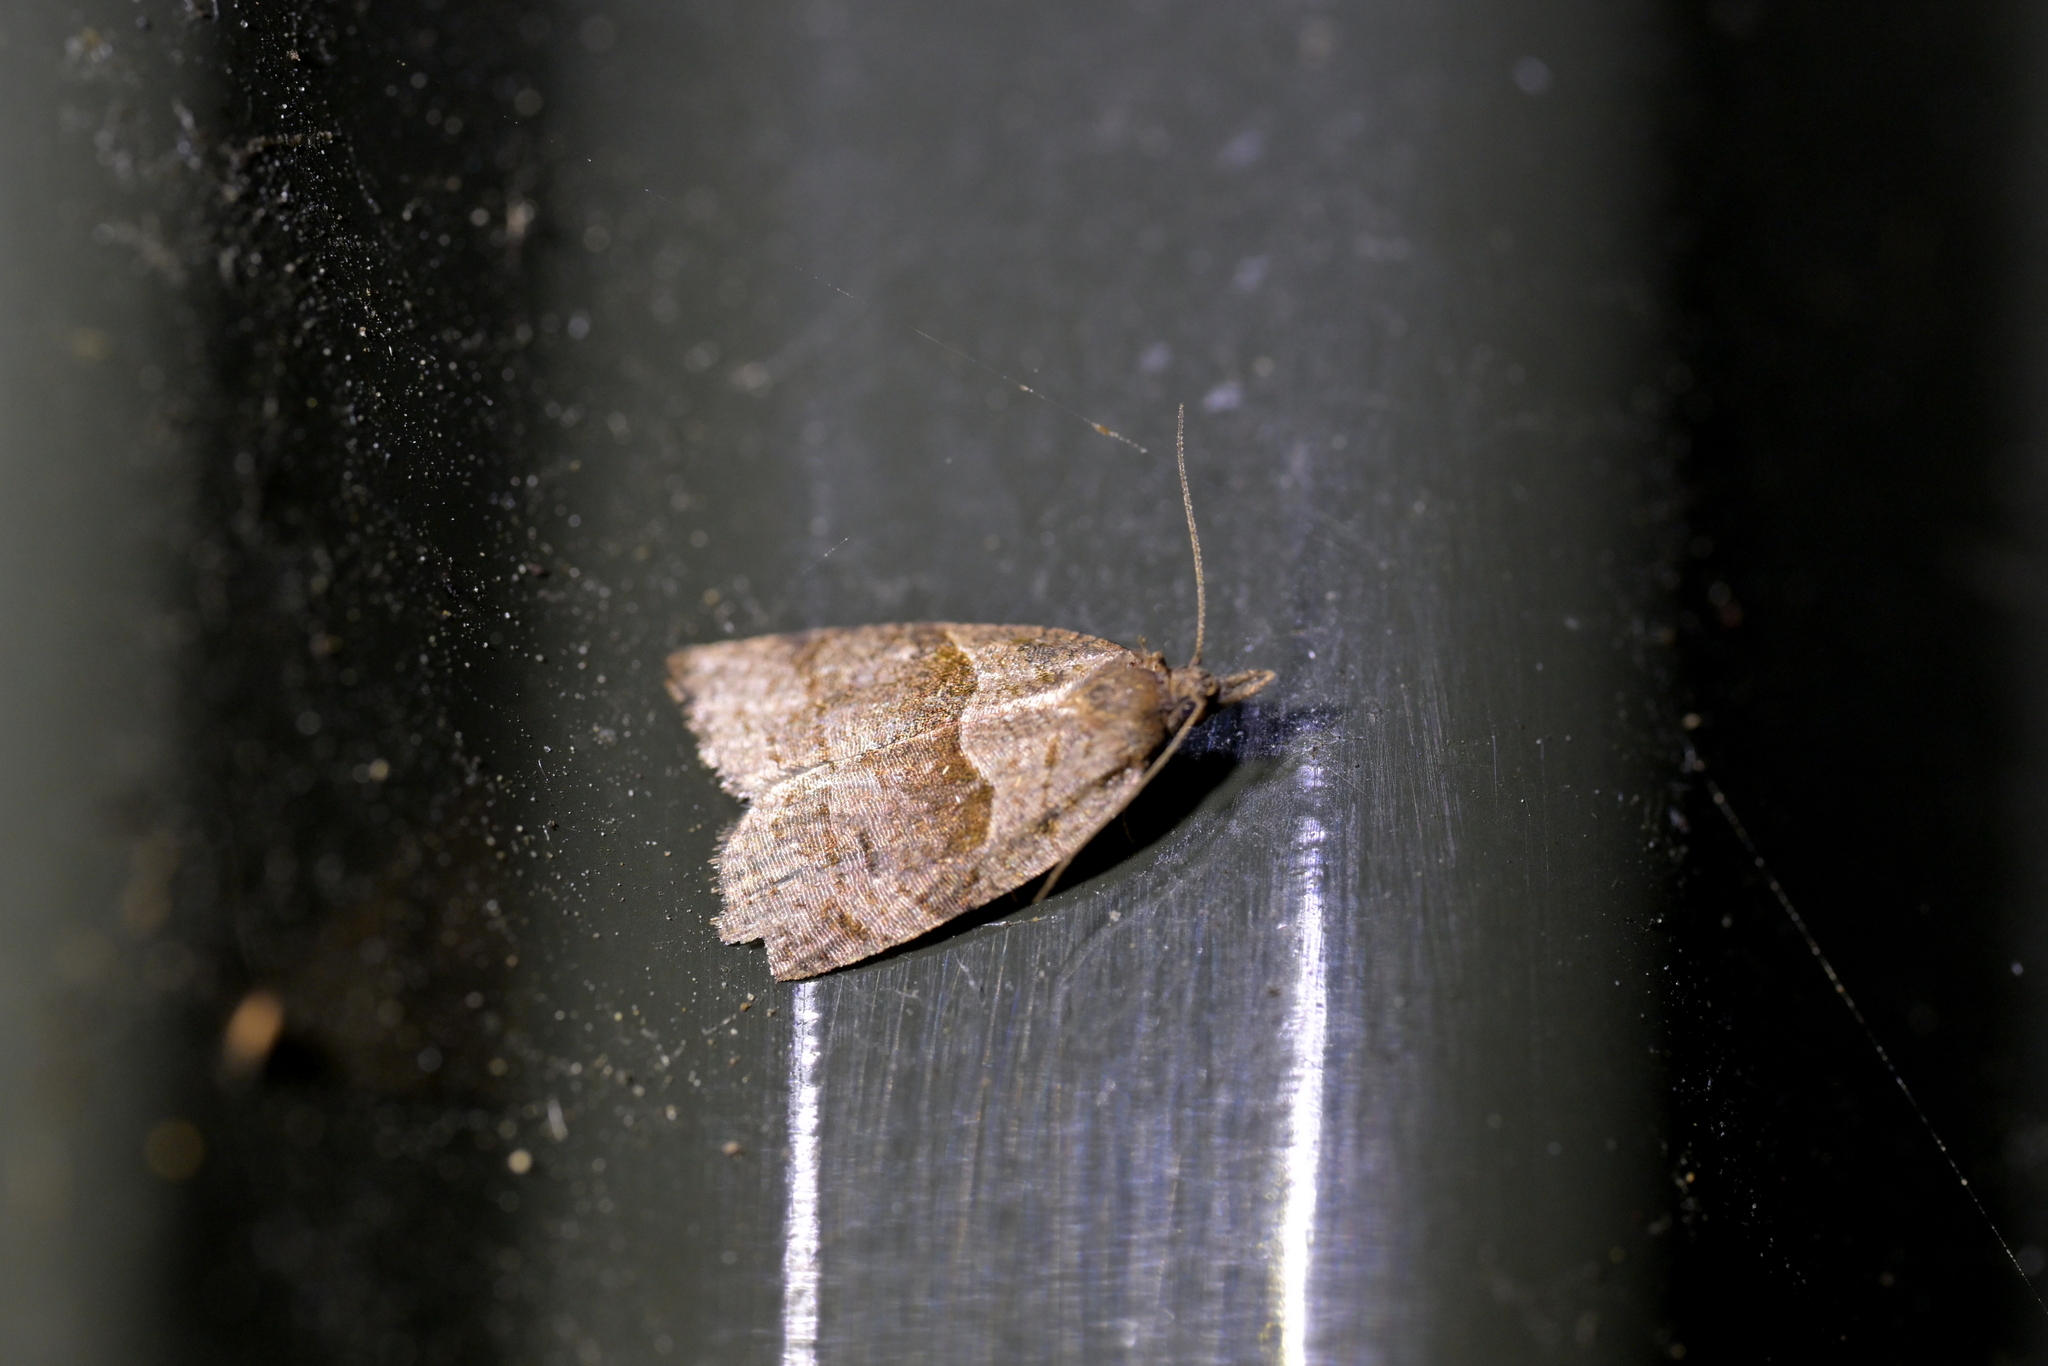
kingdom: Animalia
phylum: Arthropoda
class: Insecta
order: Lepidoptera
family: Tortricidae
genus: Cnephasia
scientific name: Cnephasia incertana
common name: Light grey tortrix
